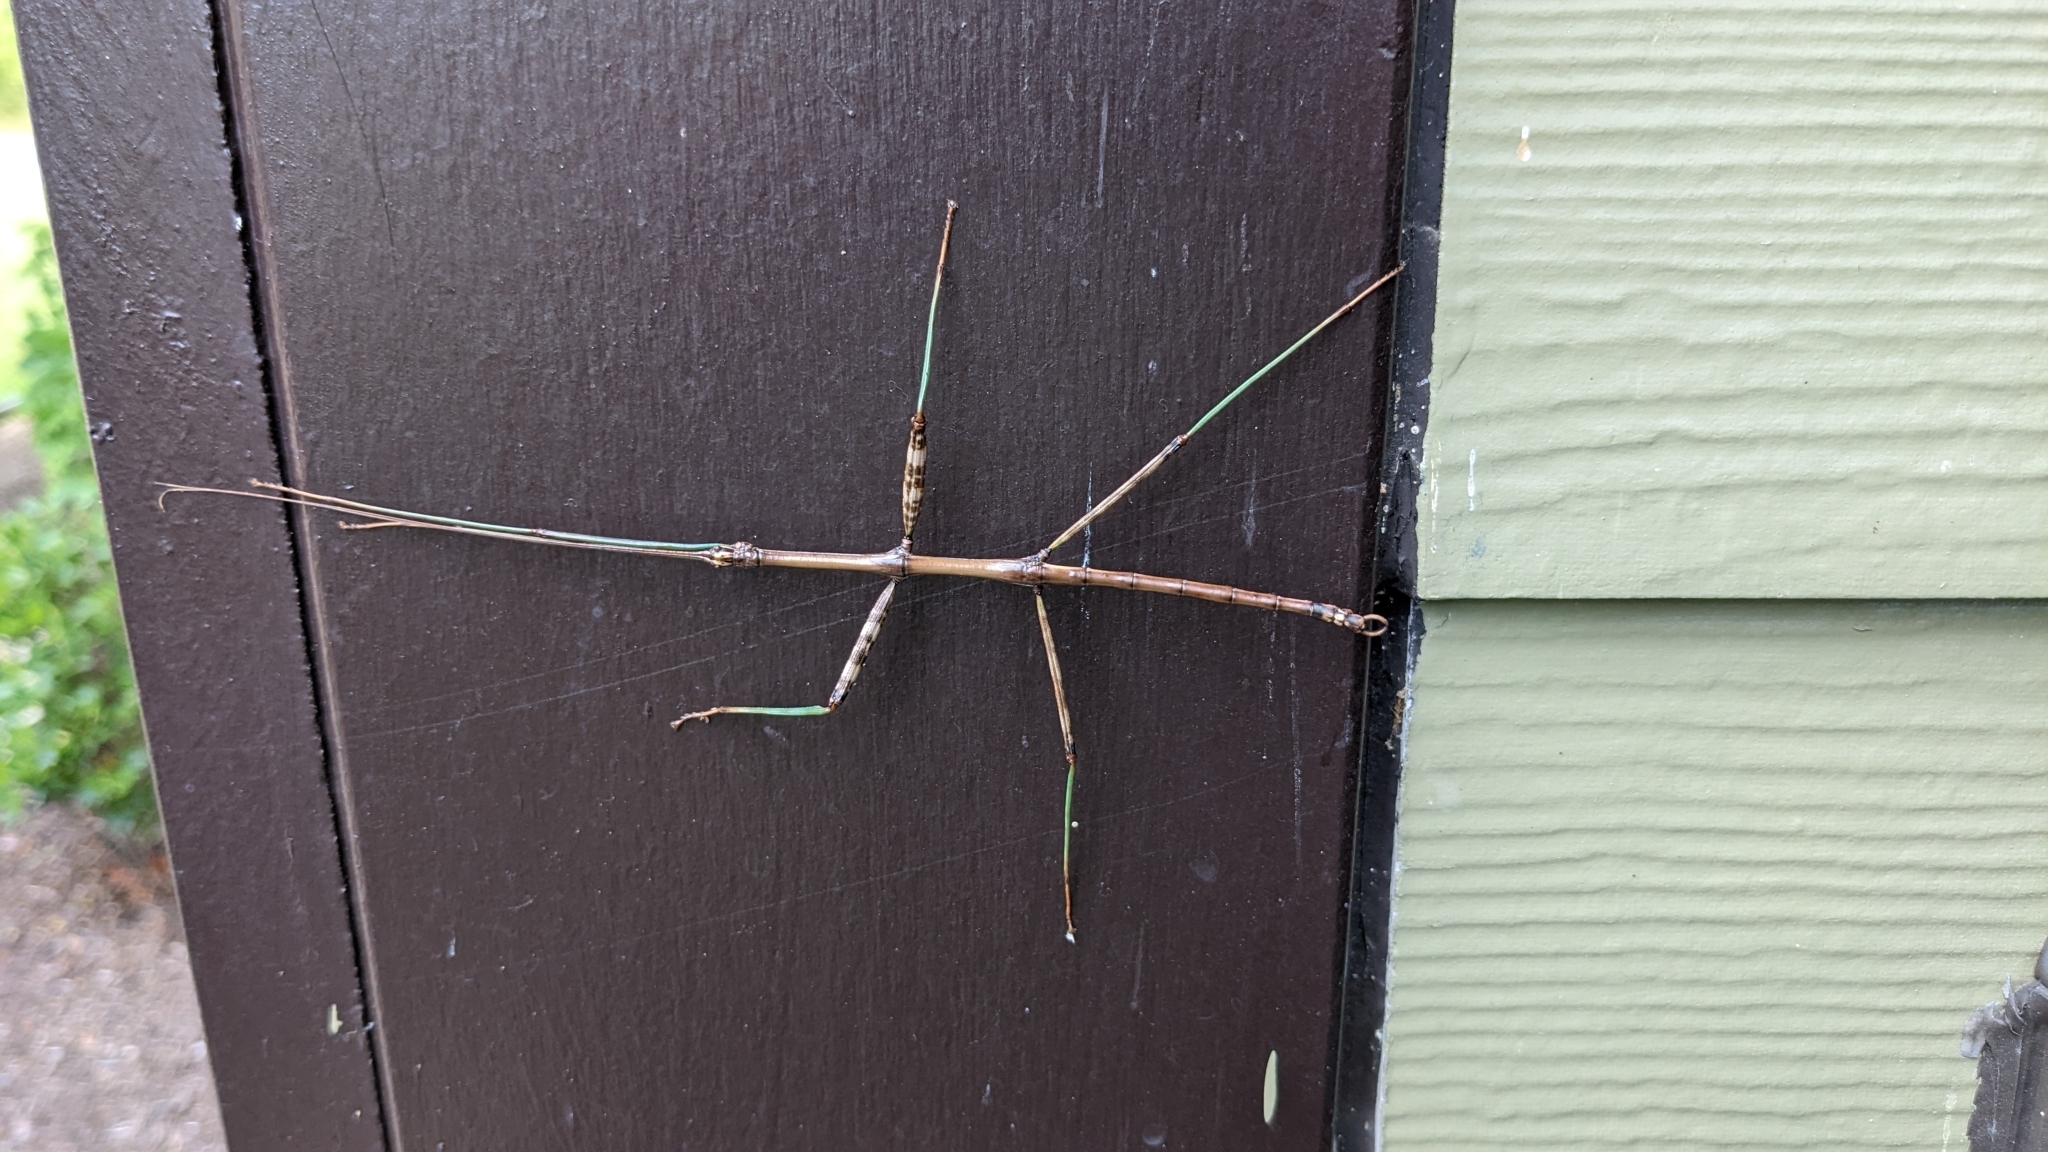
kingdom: Animalia
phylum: Arthropoda
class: Insecta
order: Phasmida
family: Diapheromeridae
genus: Diapheromera
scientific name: Diapheromera femorata
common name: Common american walkingstick
